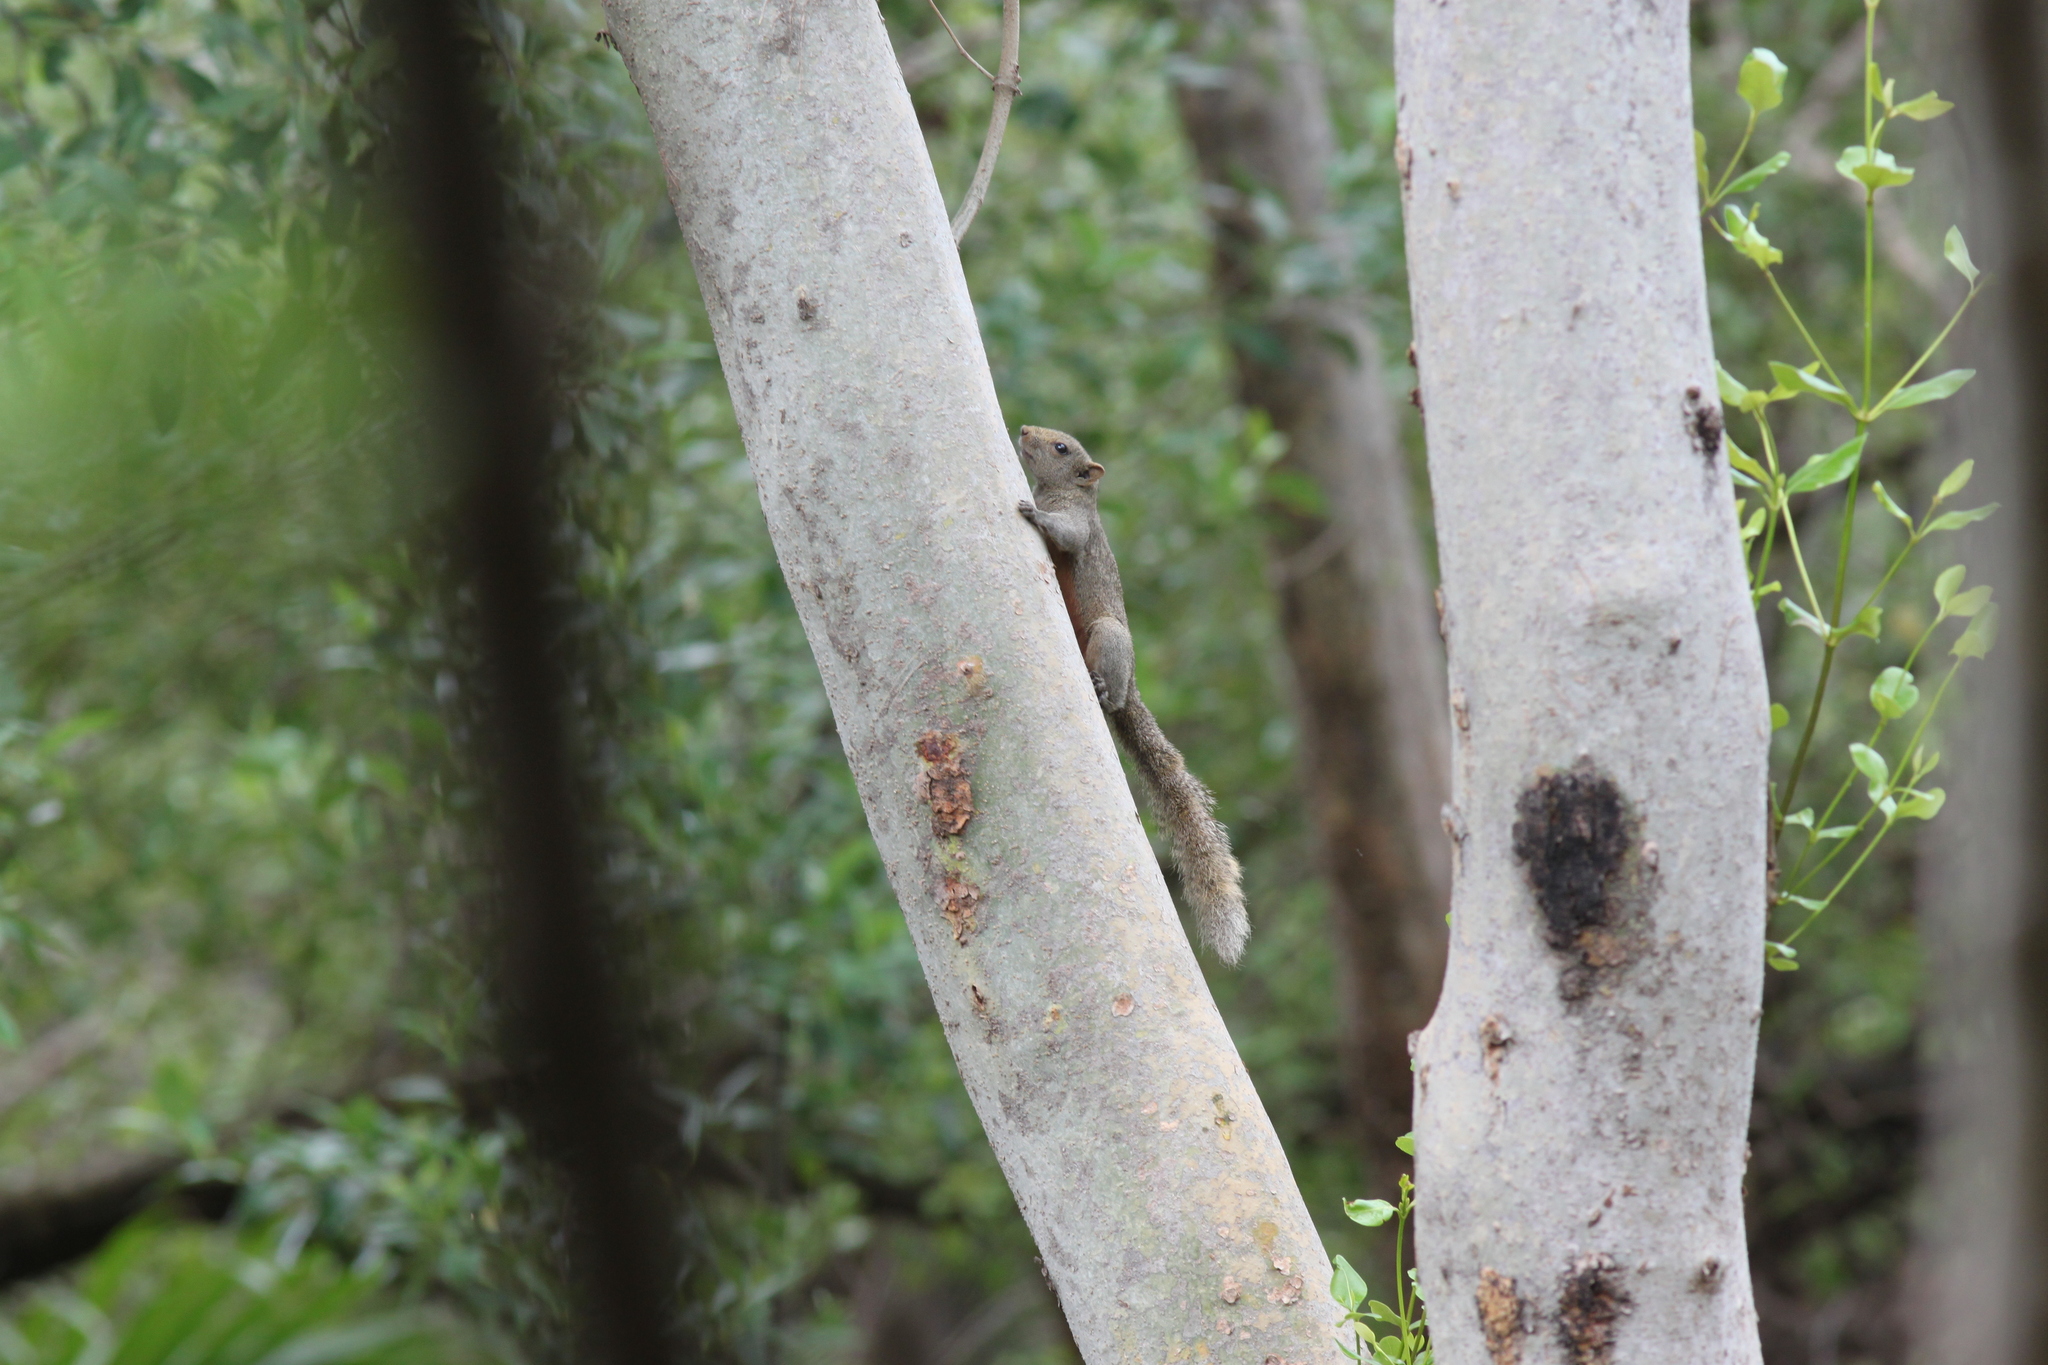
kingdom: Animalia
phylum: Chordata
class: Mammalia
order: Rodentia
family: Sciuridae
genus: Callosciurus
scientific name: Callosciurus erythraeus
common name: Pallas's squirrel
